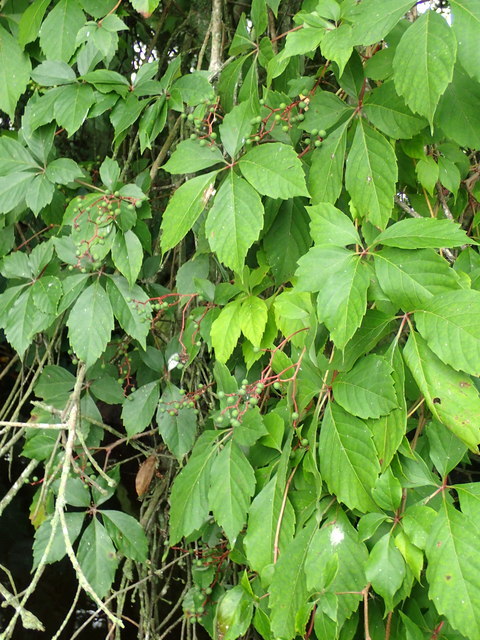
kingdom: Plantae
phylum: Tracheophyta
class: Magnoliopsida
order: Vitales
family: Vitaceae
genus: Parthenocissus
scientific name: Parthenocissus quinquefolia
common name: Virginia-creeper
